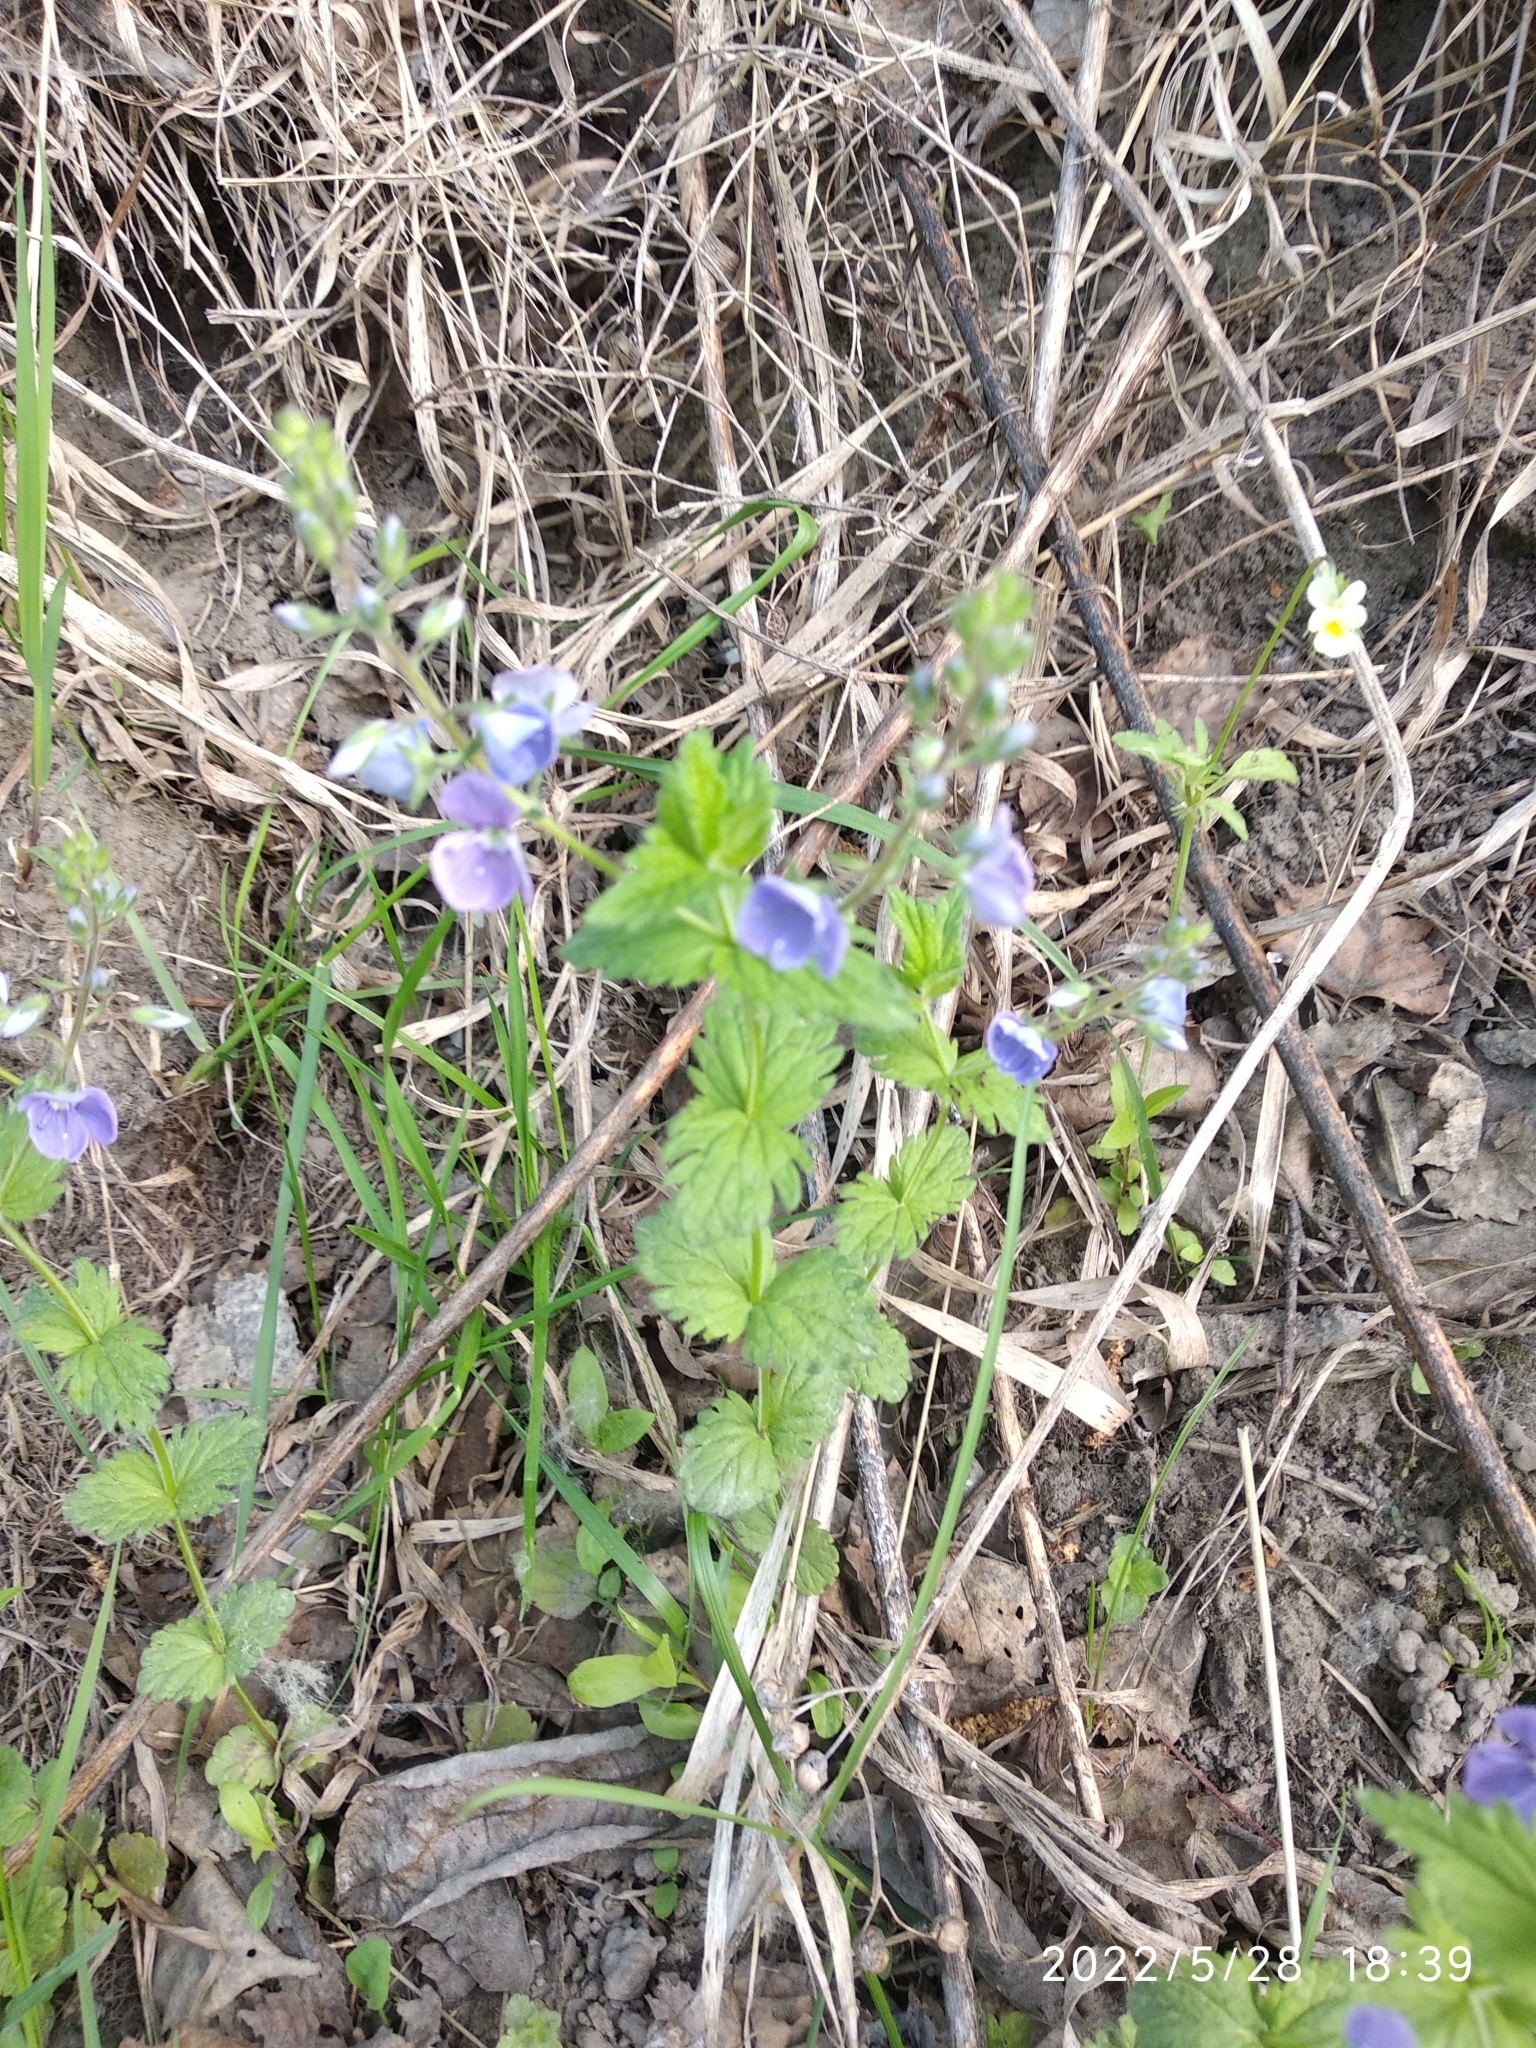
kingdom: Plantae
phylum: Tracheophyta
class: Magnoliopsida
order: Lamiales
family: Plantaginaceae
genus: Veronica
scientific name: Veronica chamaedrys
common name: Germander speedwell
